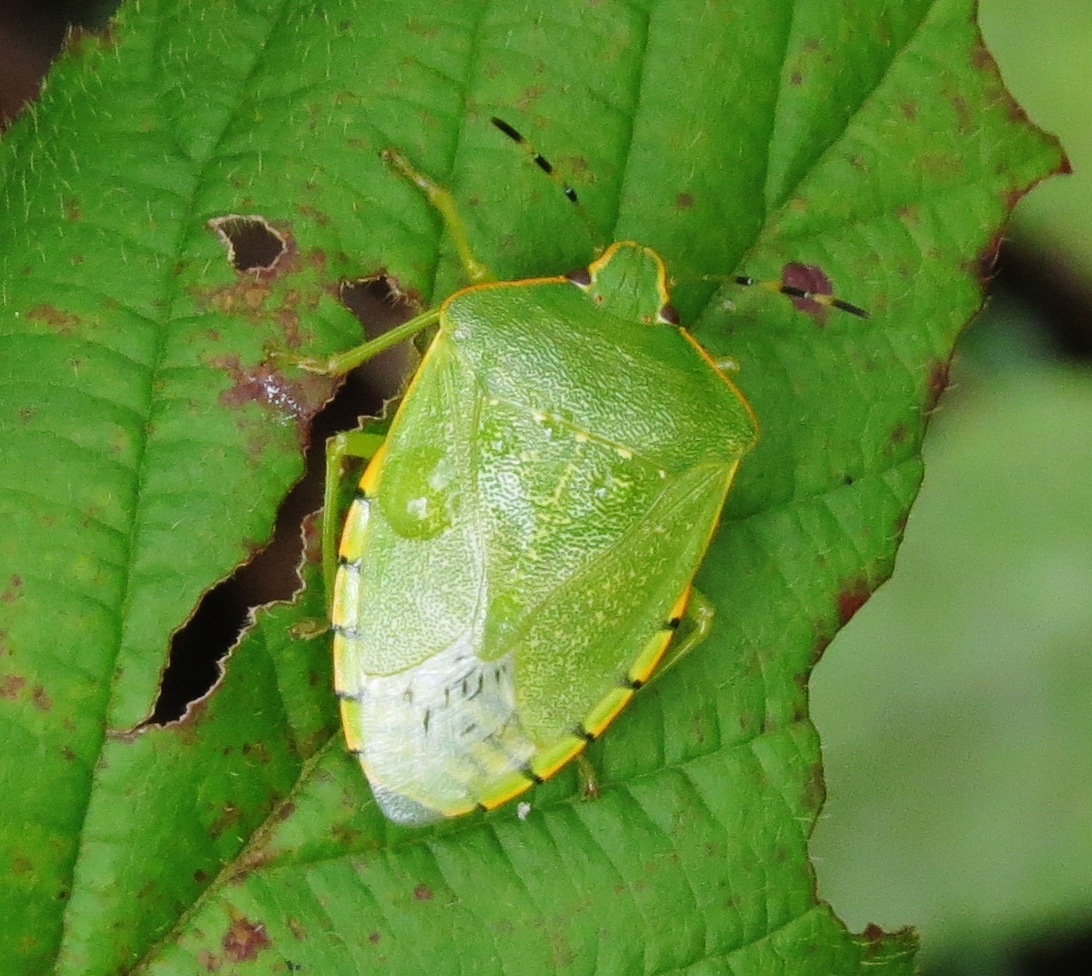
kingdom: Animalia
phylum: Arthropoda
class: Insecta
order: Hemiptera
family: Pentatomidae
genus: Chinavia
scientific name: Chinavia hilaris
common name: Green stink bug
